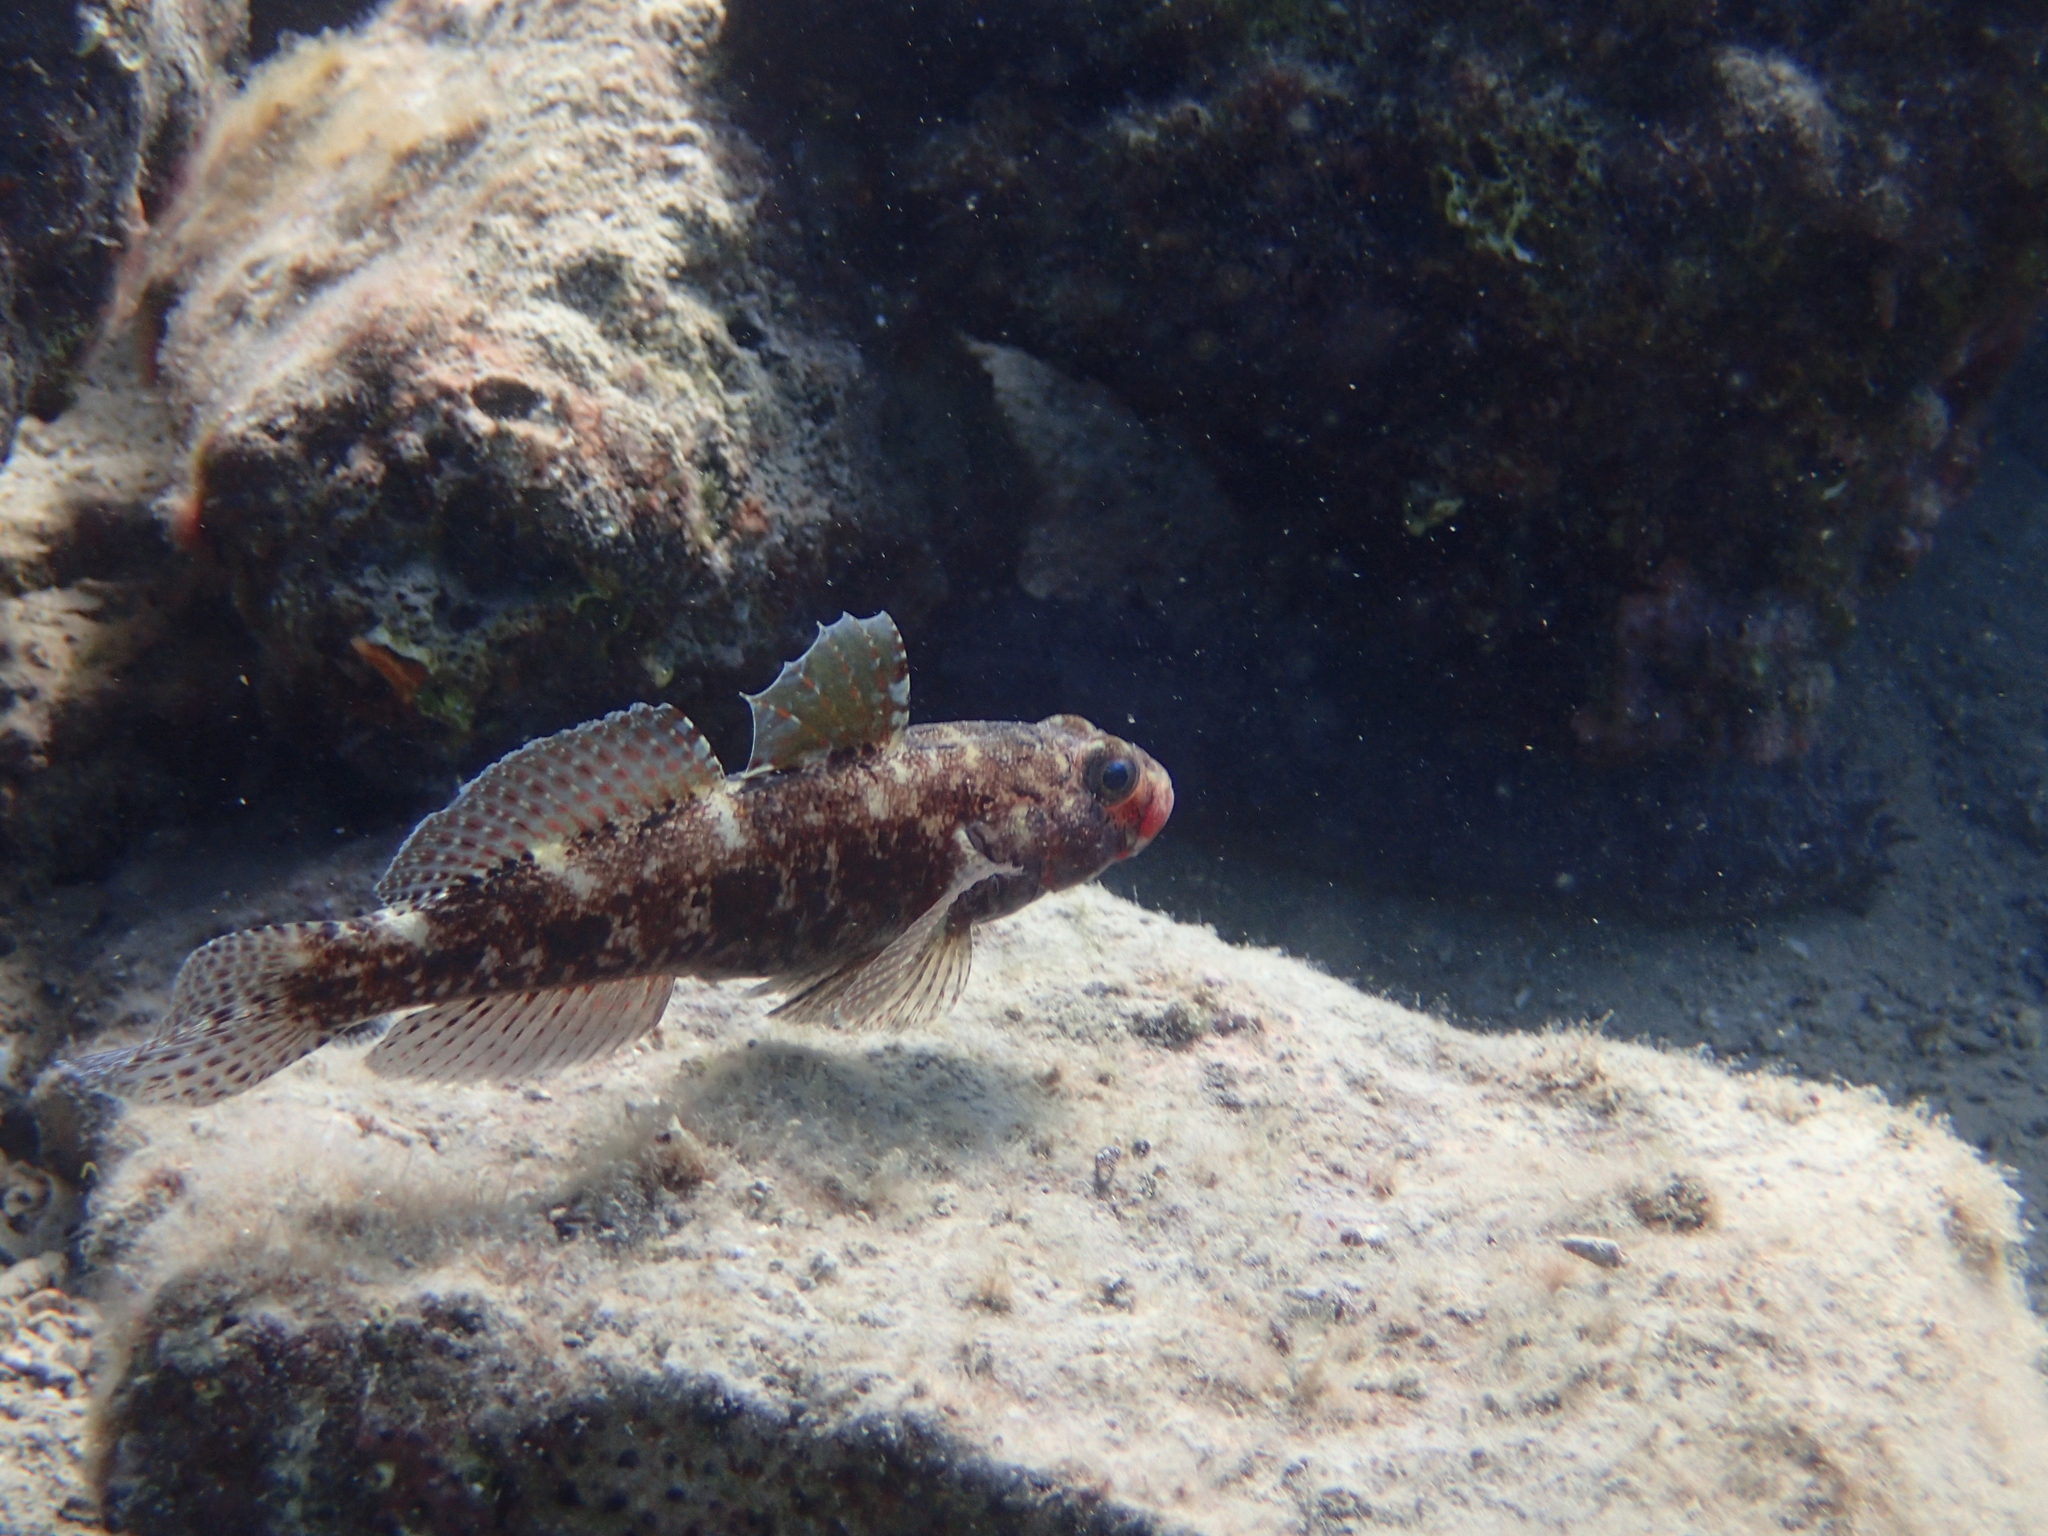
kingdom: Animalia
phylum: Chordata
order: Perciformes
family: Gobiidae
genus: Gobius
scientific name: Gobius cruentatus
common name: Red-mouthed goby
